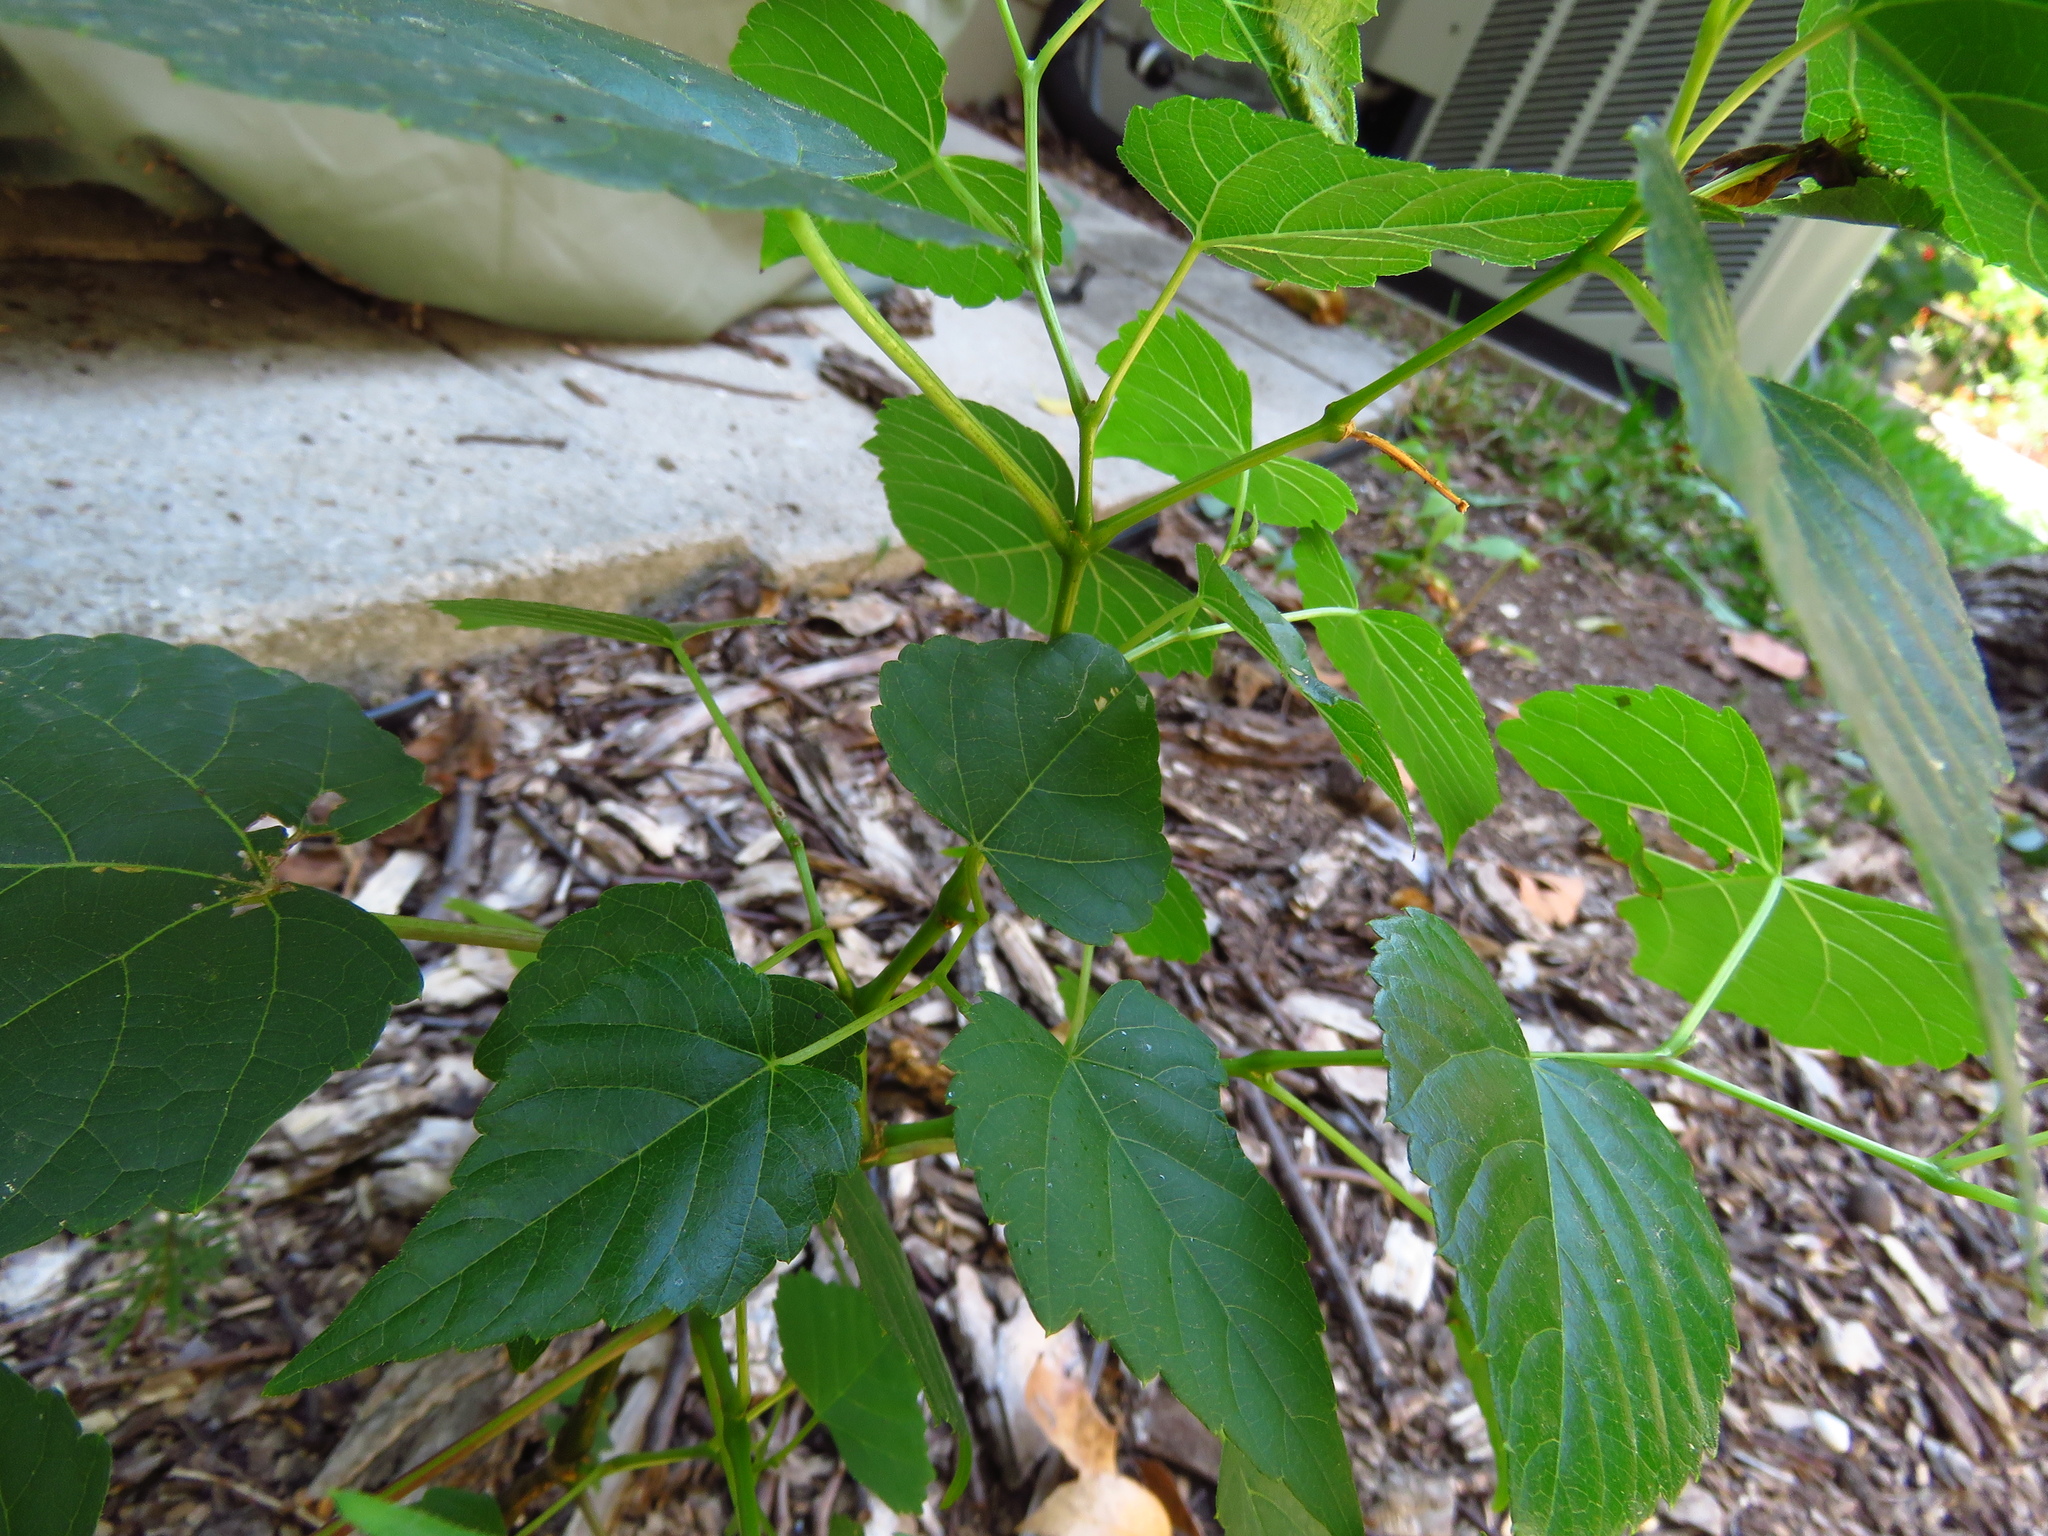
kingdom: Plantae
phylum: Tracheophyta
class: Magnoliopsida
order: Vitales
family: Vitaceae
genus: Ampelopsis
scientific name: Ampelopsis cordata
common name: Heart-leaf ampelopsis
